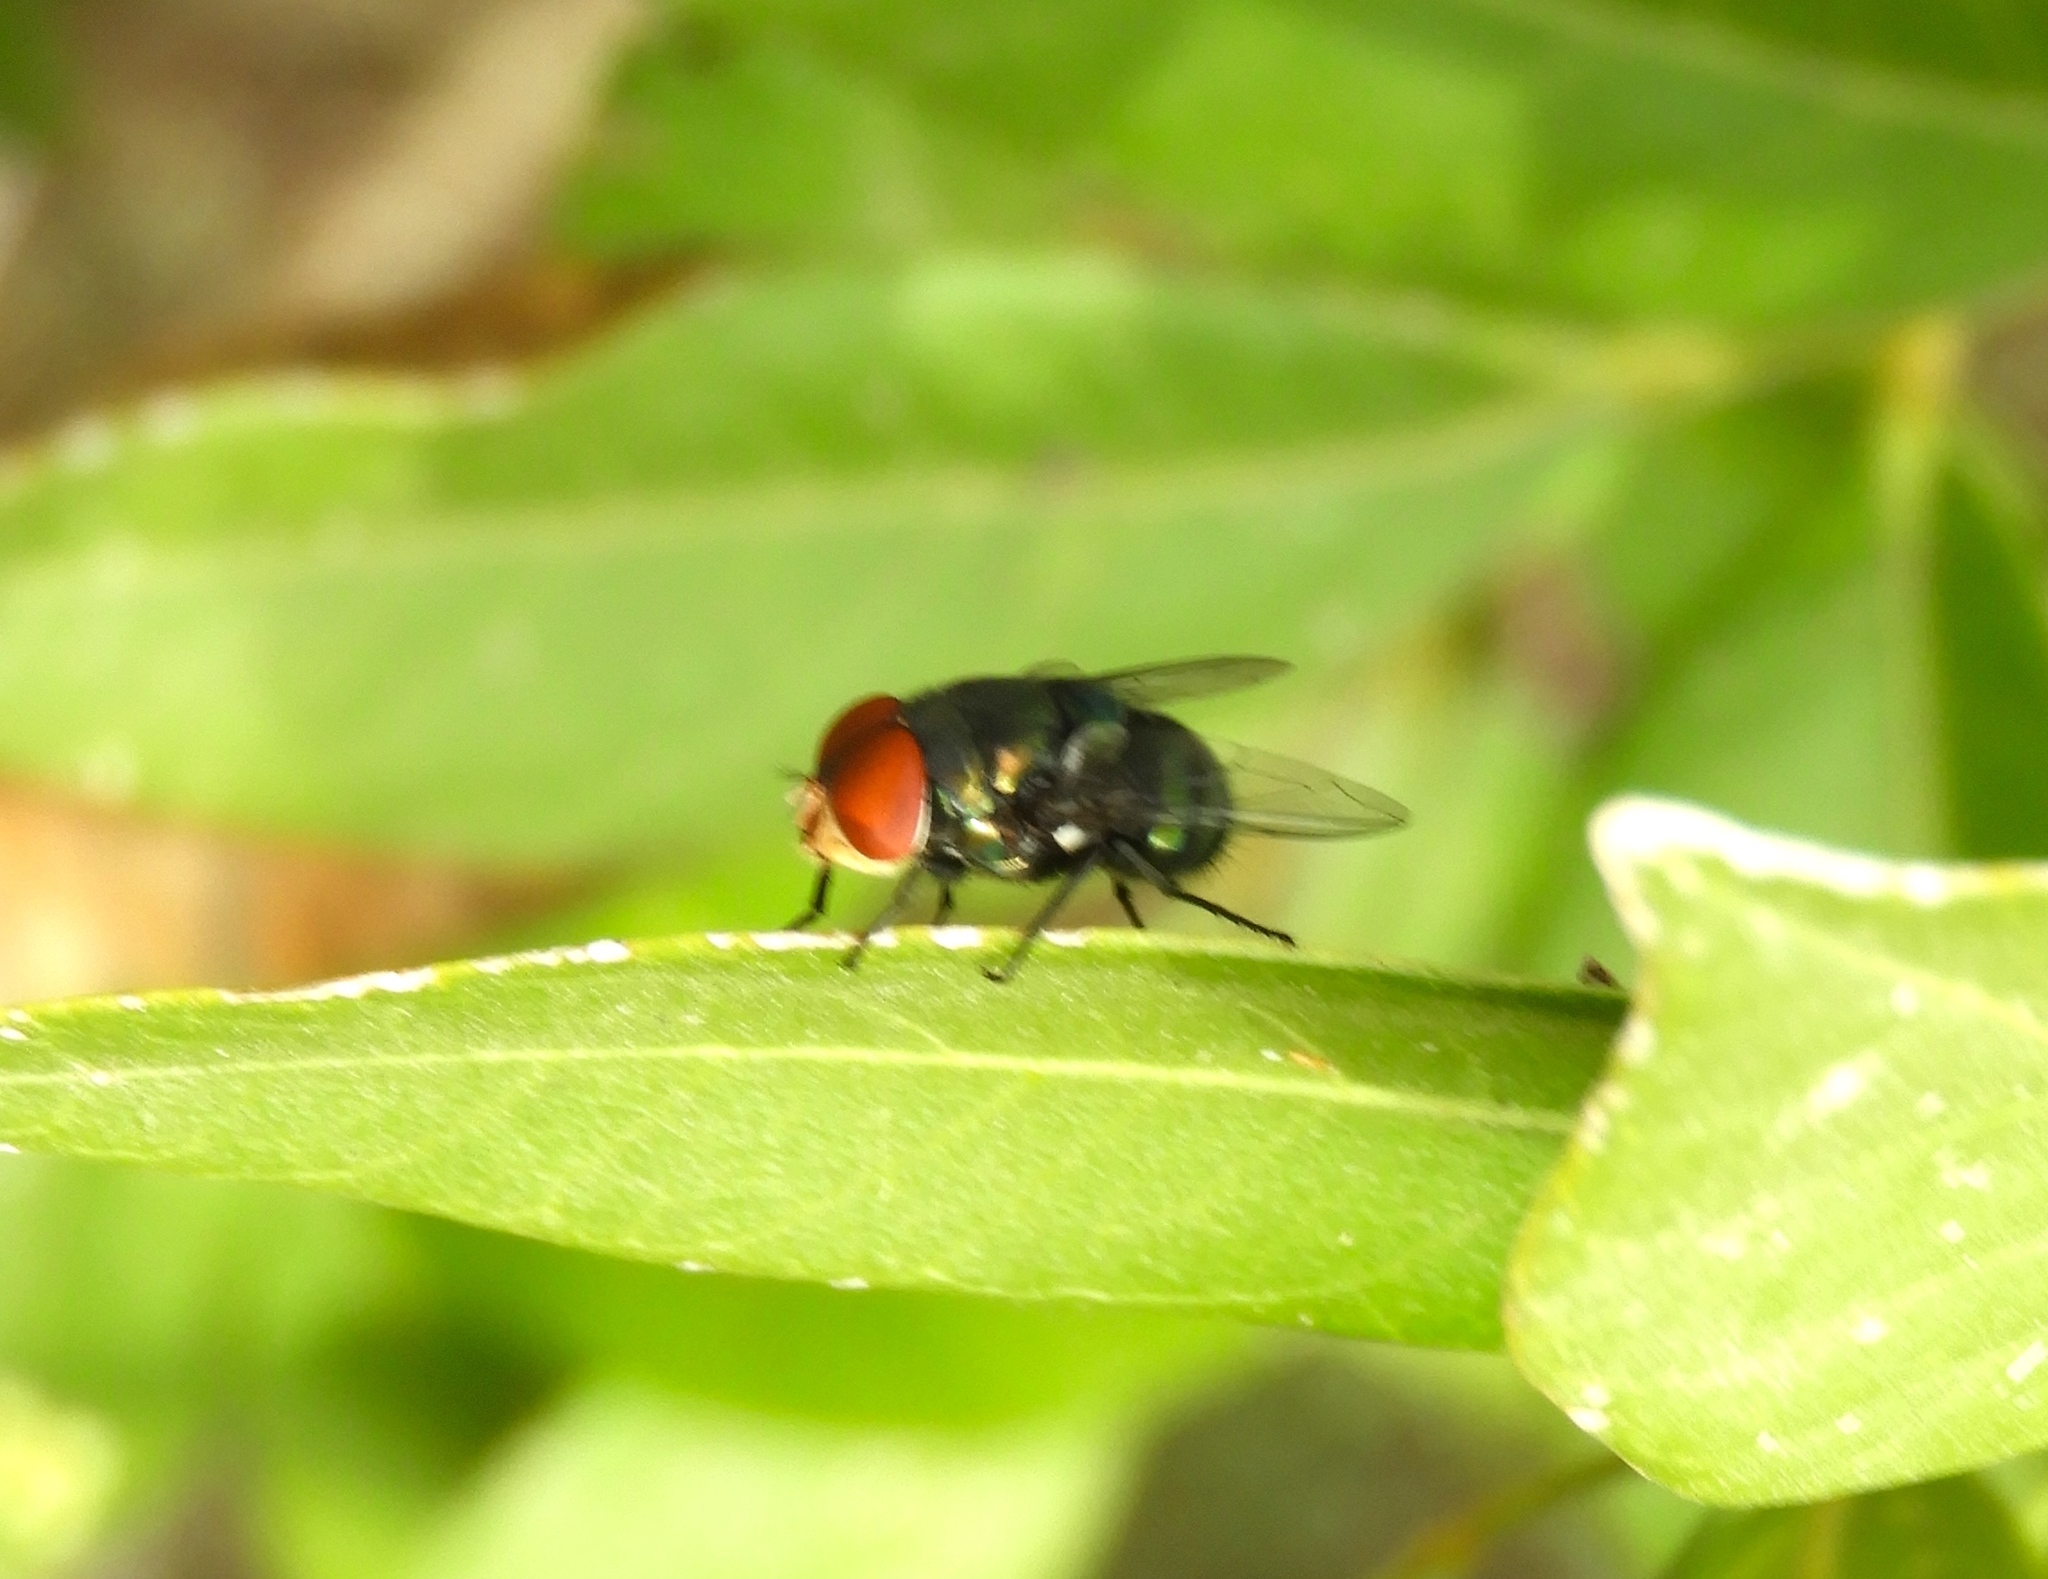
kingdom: Animalia
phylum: Arthropoda
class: Insecta
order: Diptera
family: Calliphoridae
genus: Chrysomya
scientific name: Chrysomya
